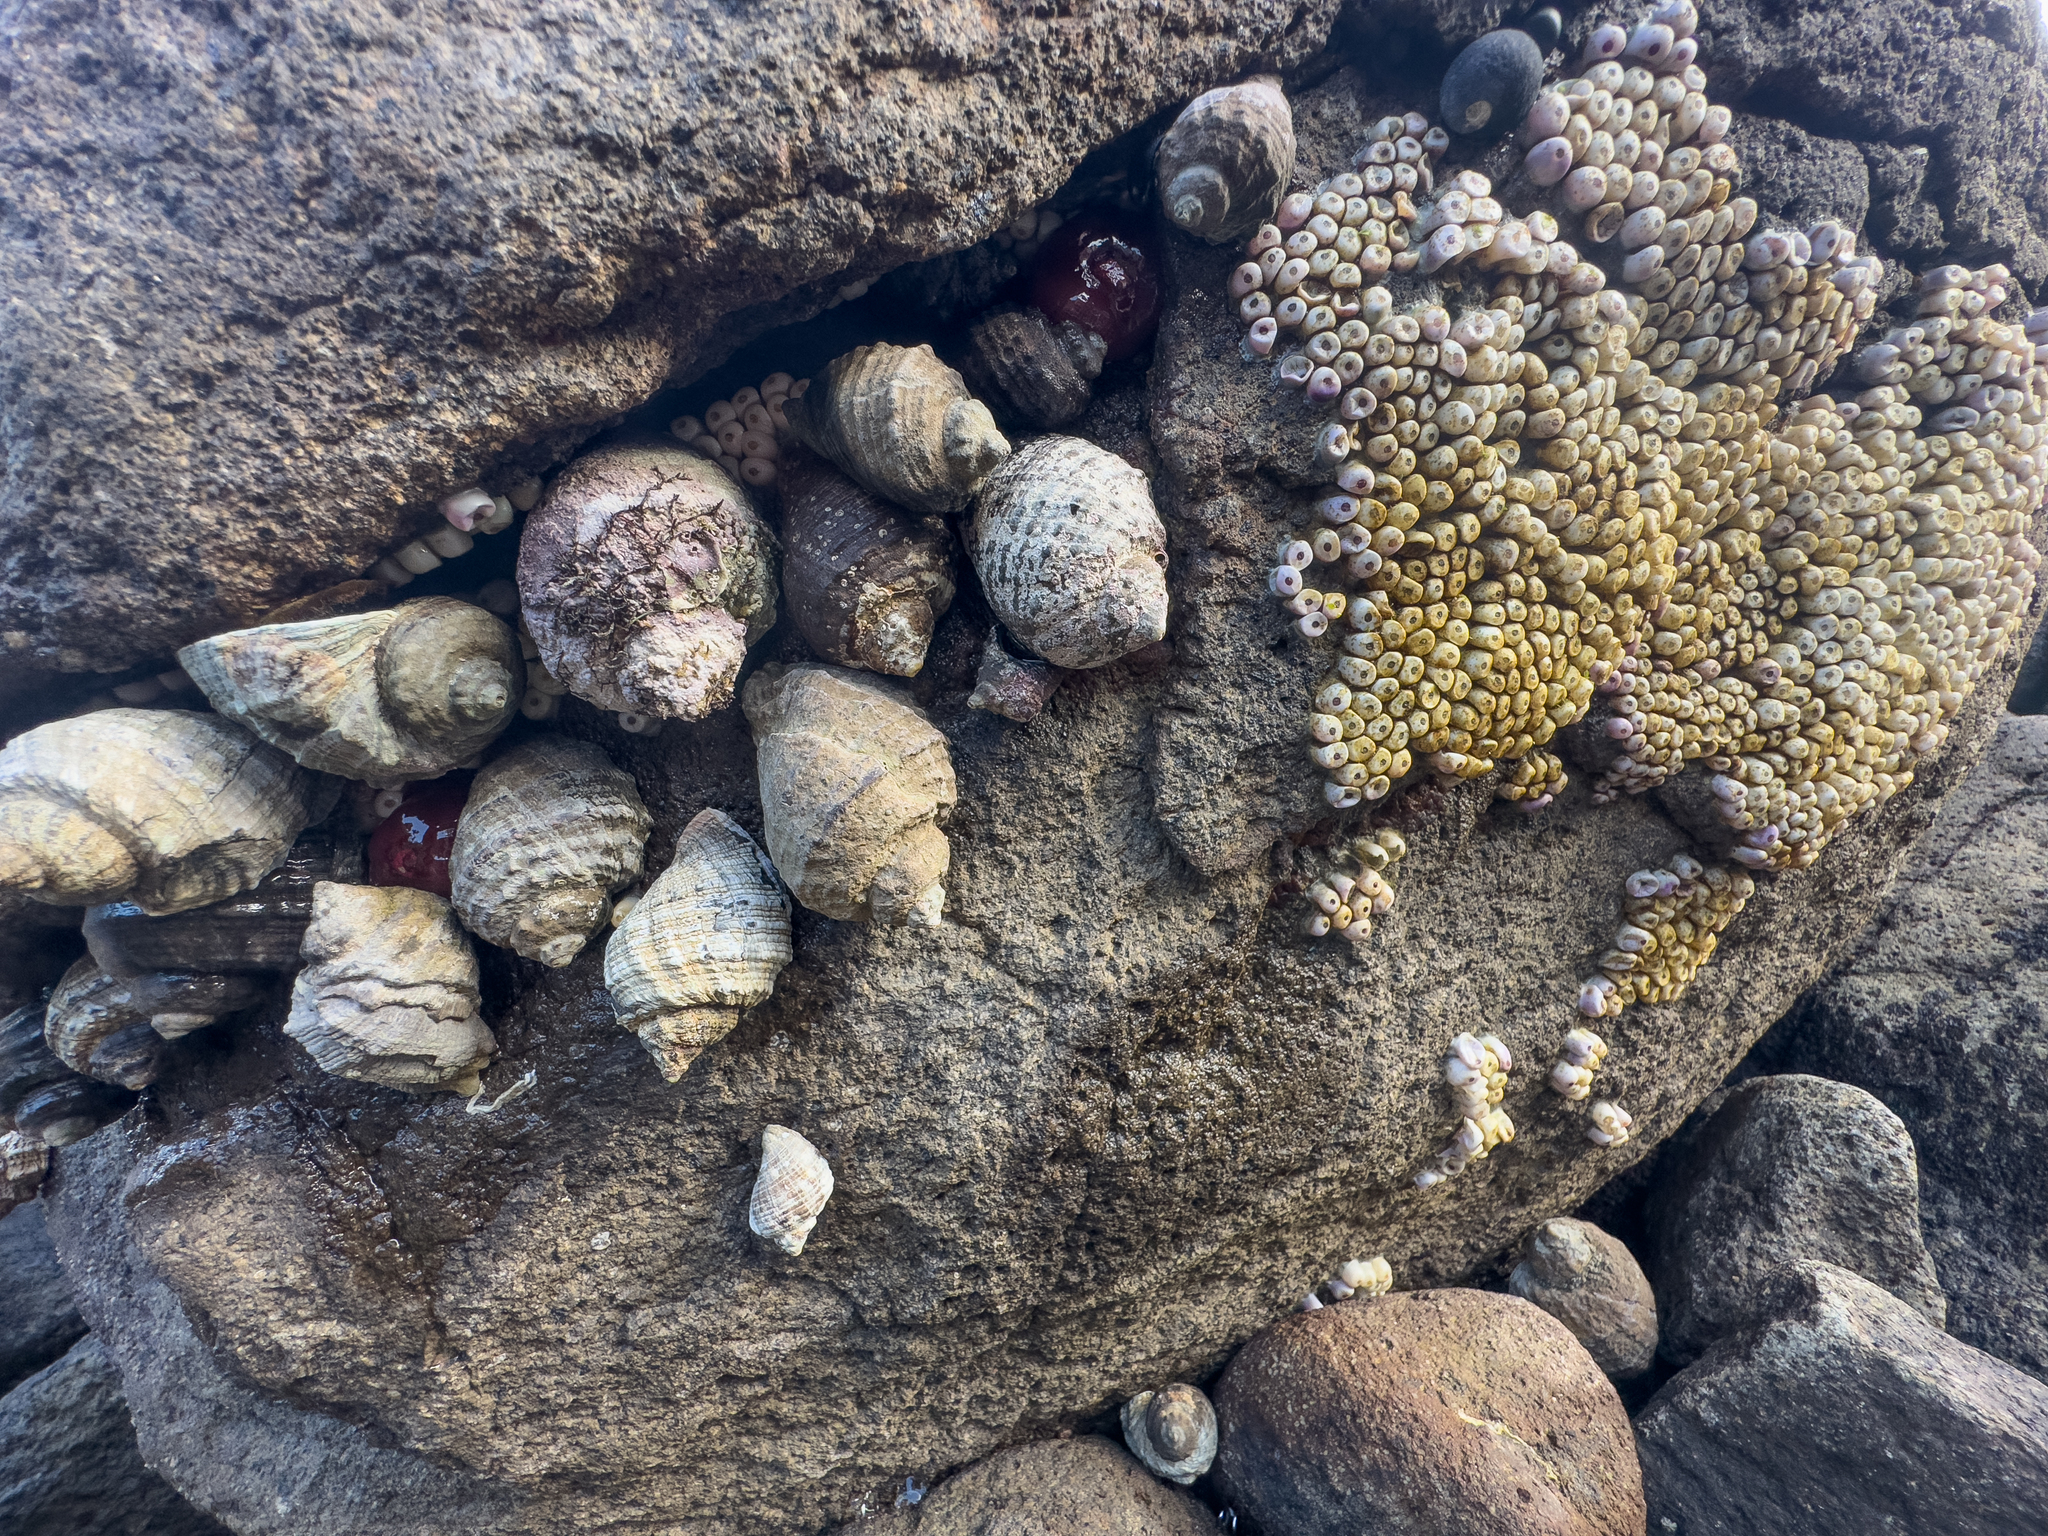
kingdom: Animalia
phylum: Mollusca
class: Gastropoda
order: Neogastropoda
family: Muricidae
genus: Dicathais
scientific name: Dicathais orbita
